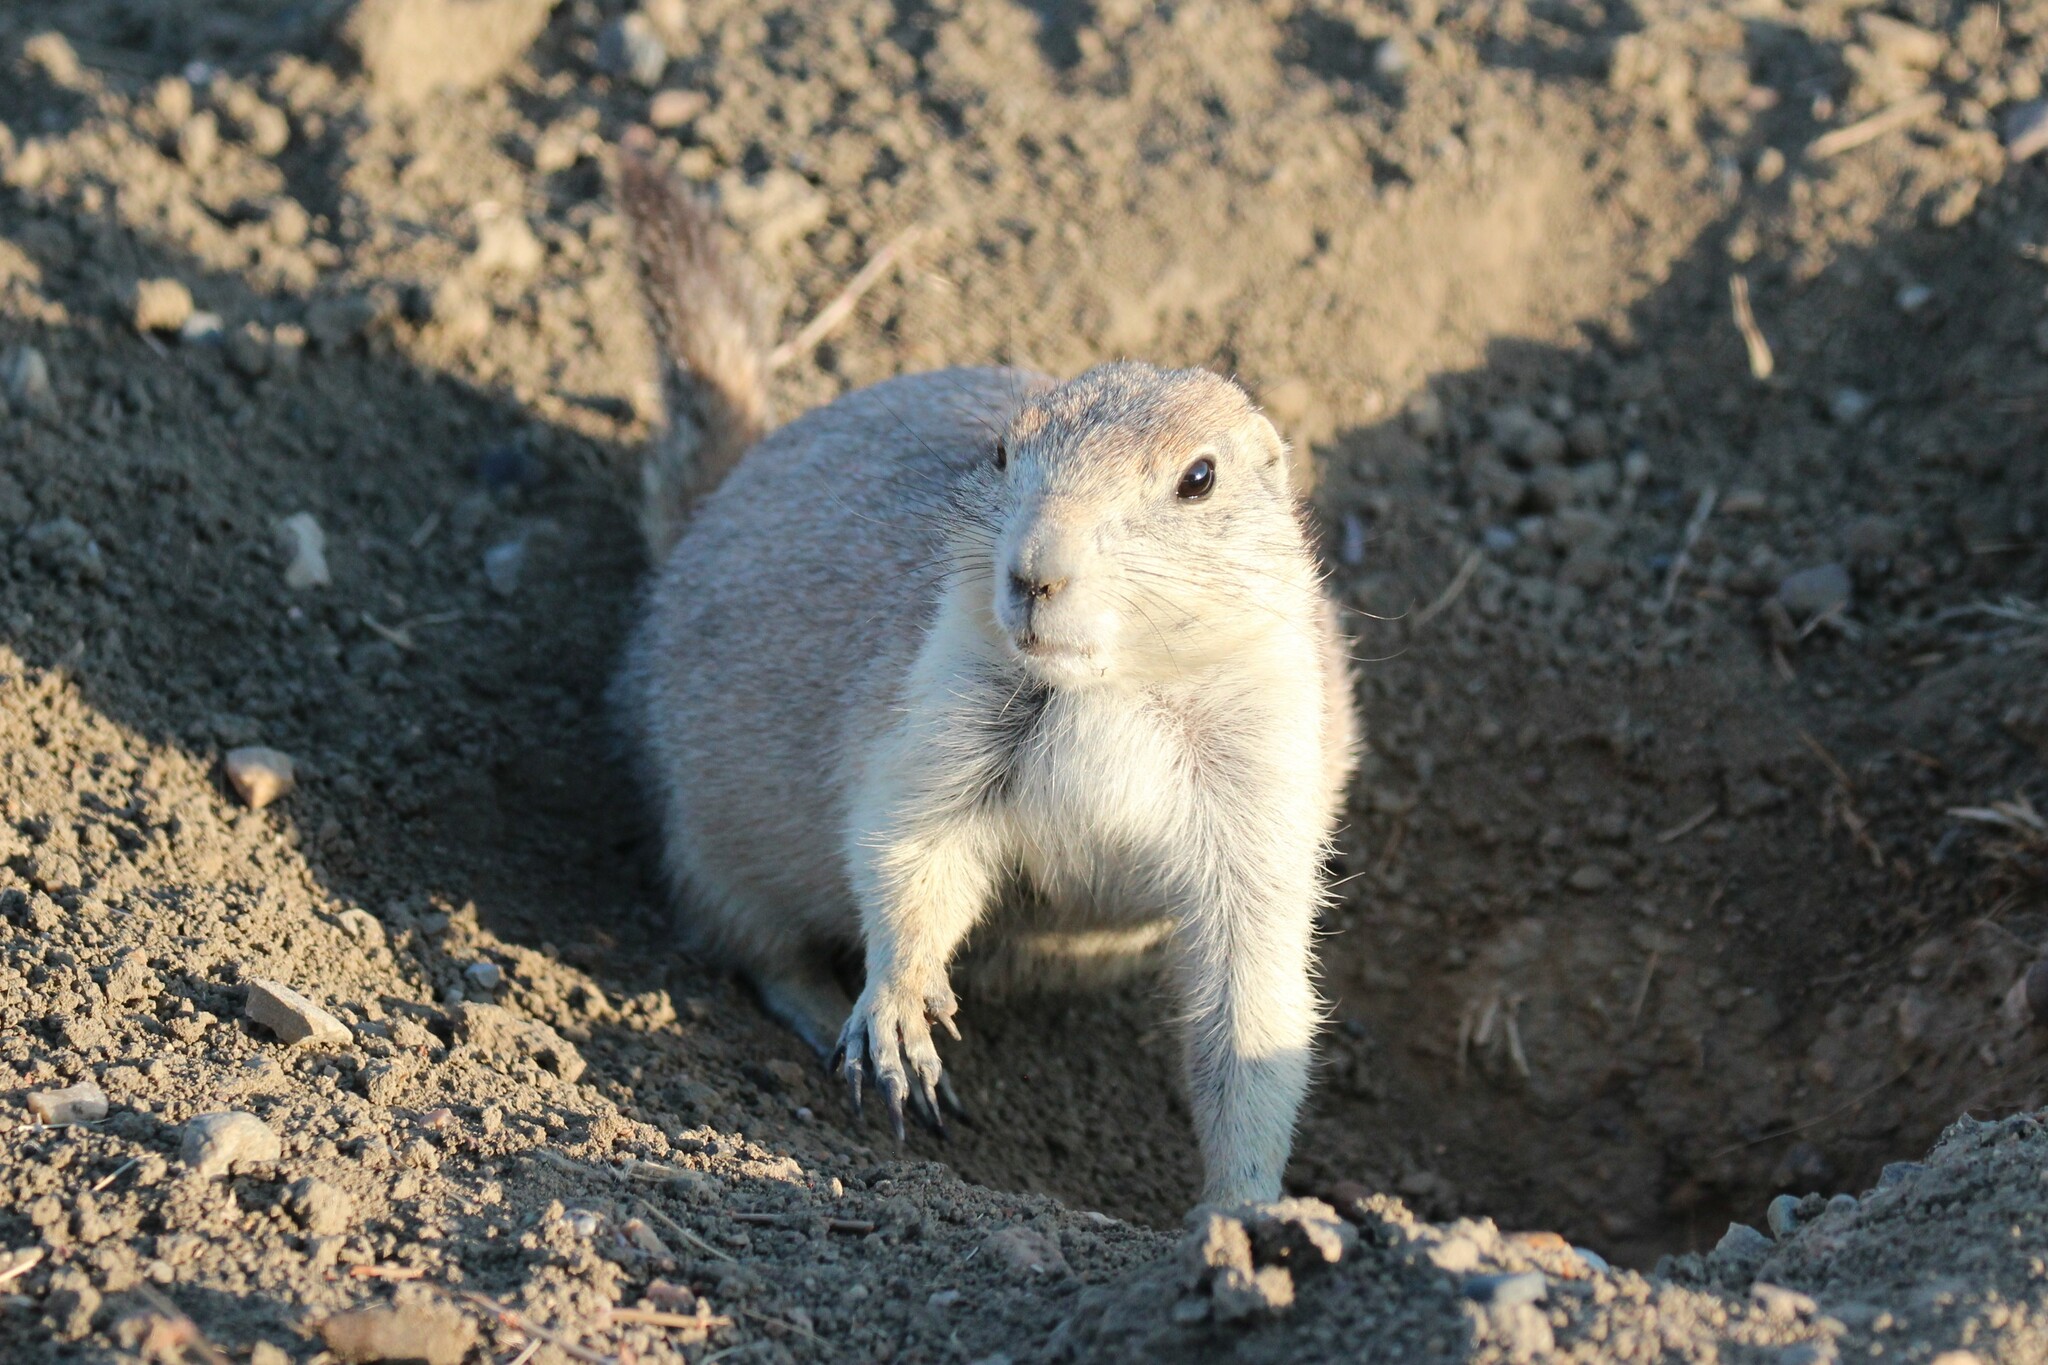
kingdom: Animalia
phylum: Chordata
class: Mammalia
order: Rodentia
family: Sciuridae
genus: Cynomys
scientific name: Cynomys ludovicianus
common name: Black-tailed prairie dog
